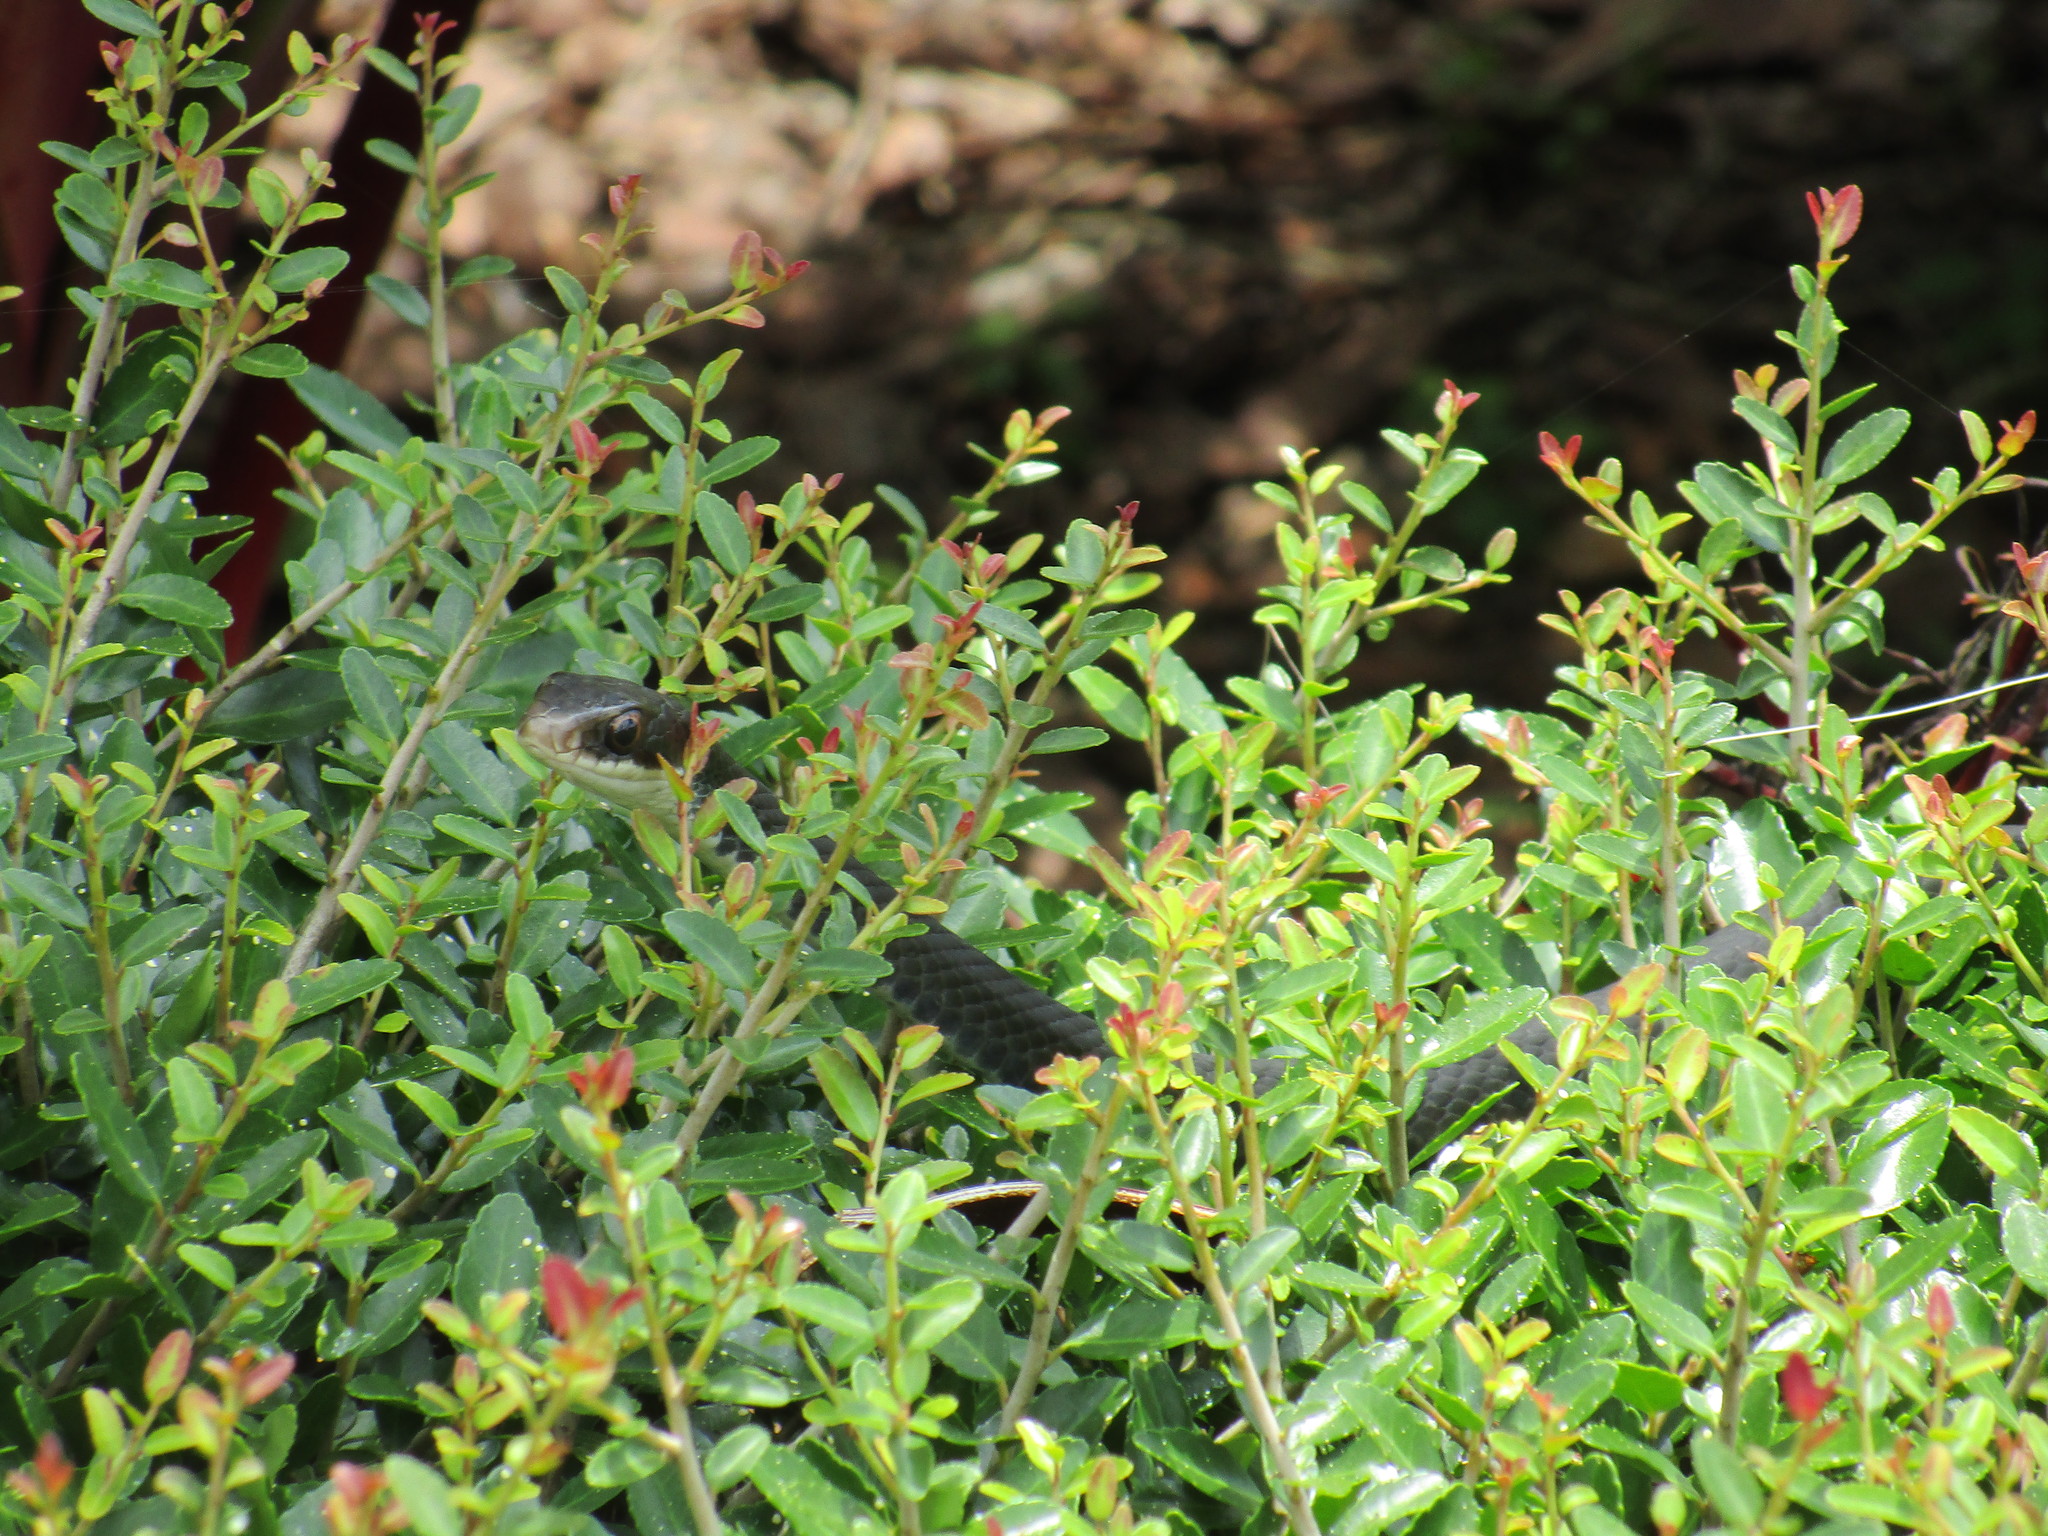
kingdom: Animalia
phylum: Chordata
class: Squamata
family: Colubridae
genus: Coluber
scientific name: Coluber constrictor
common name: Eastern racer
